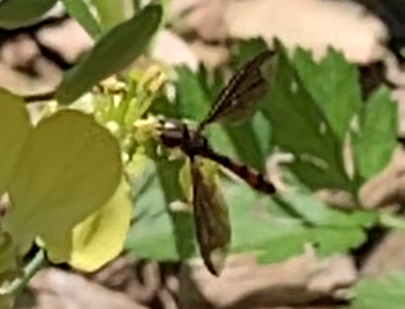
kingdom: Animalia
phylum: Arthropoda
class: Insecta
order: Diptera
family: Syrphidae
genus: Ocyptamus
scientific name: Ocyptamus fuscipennis
